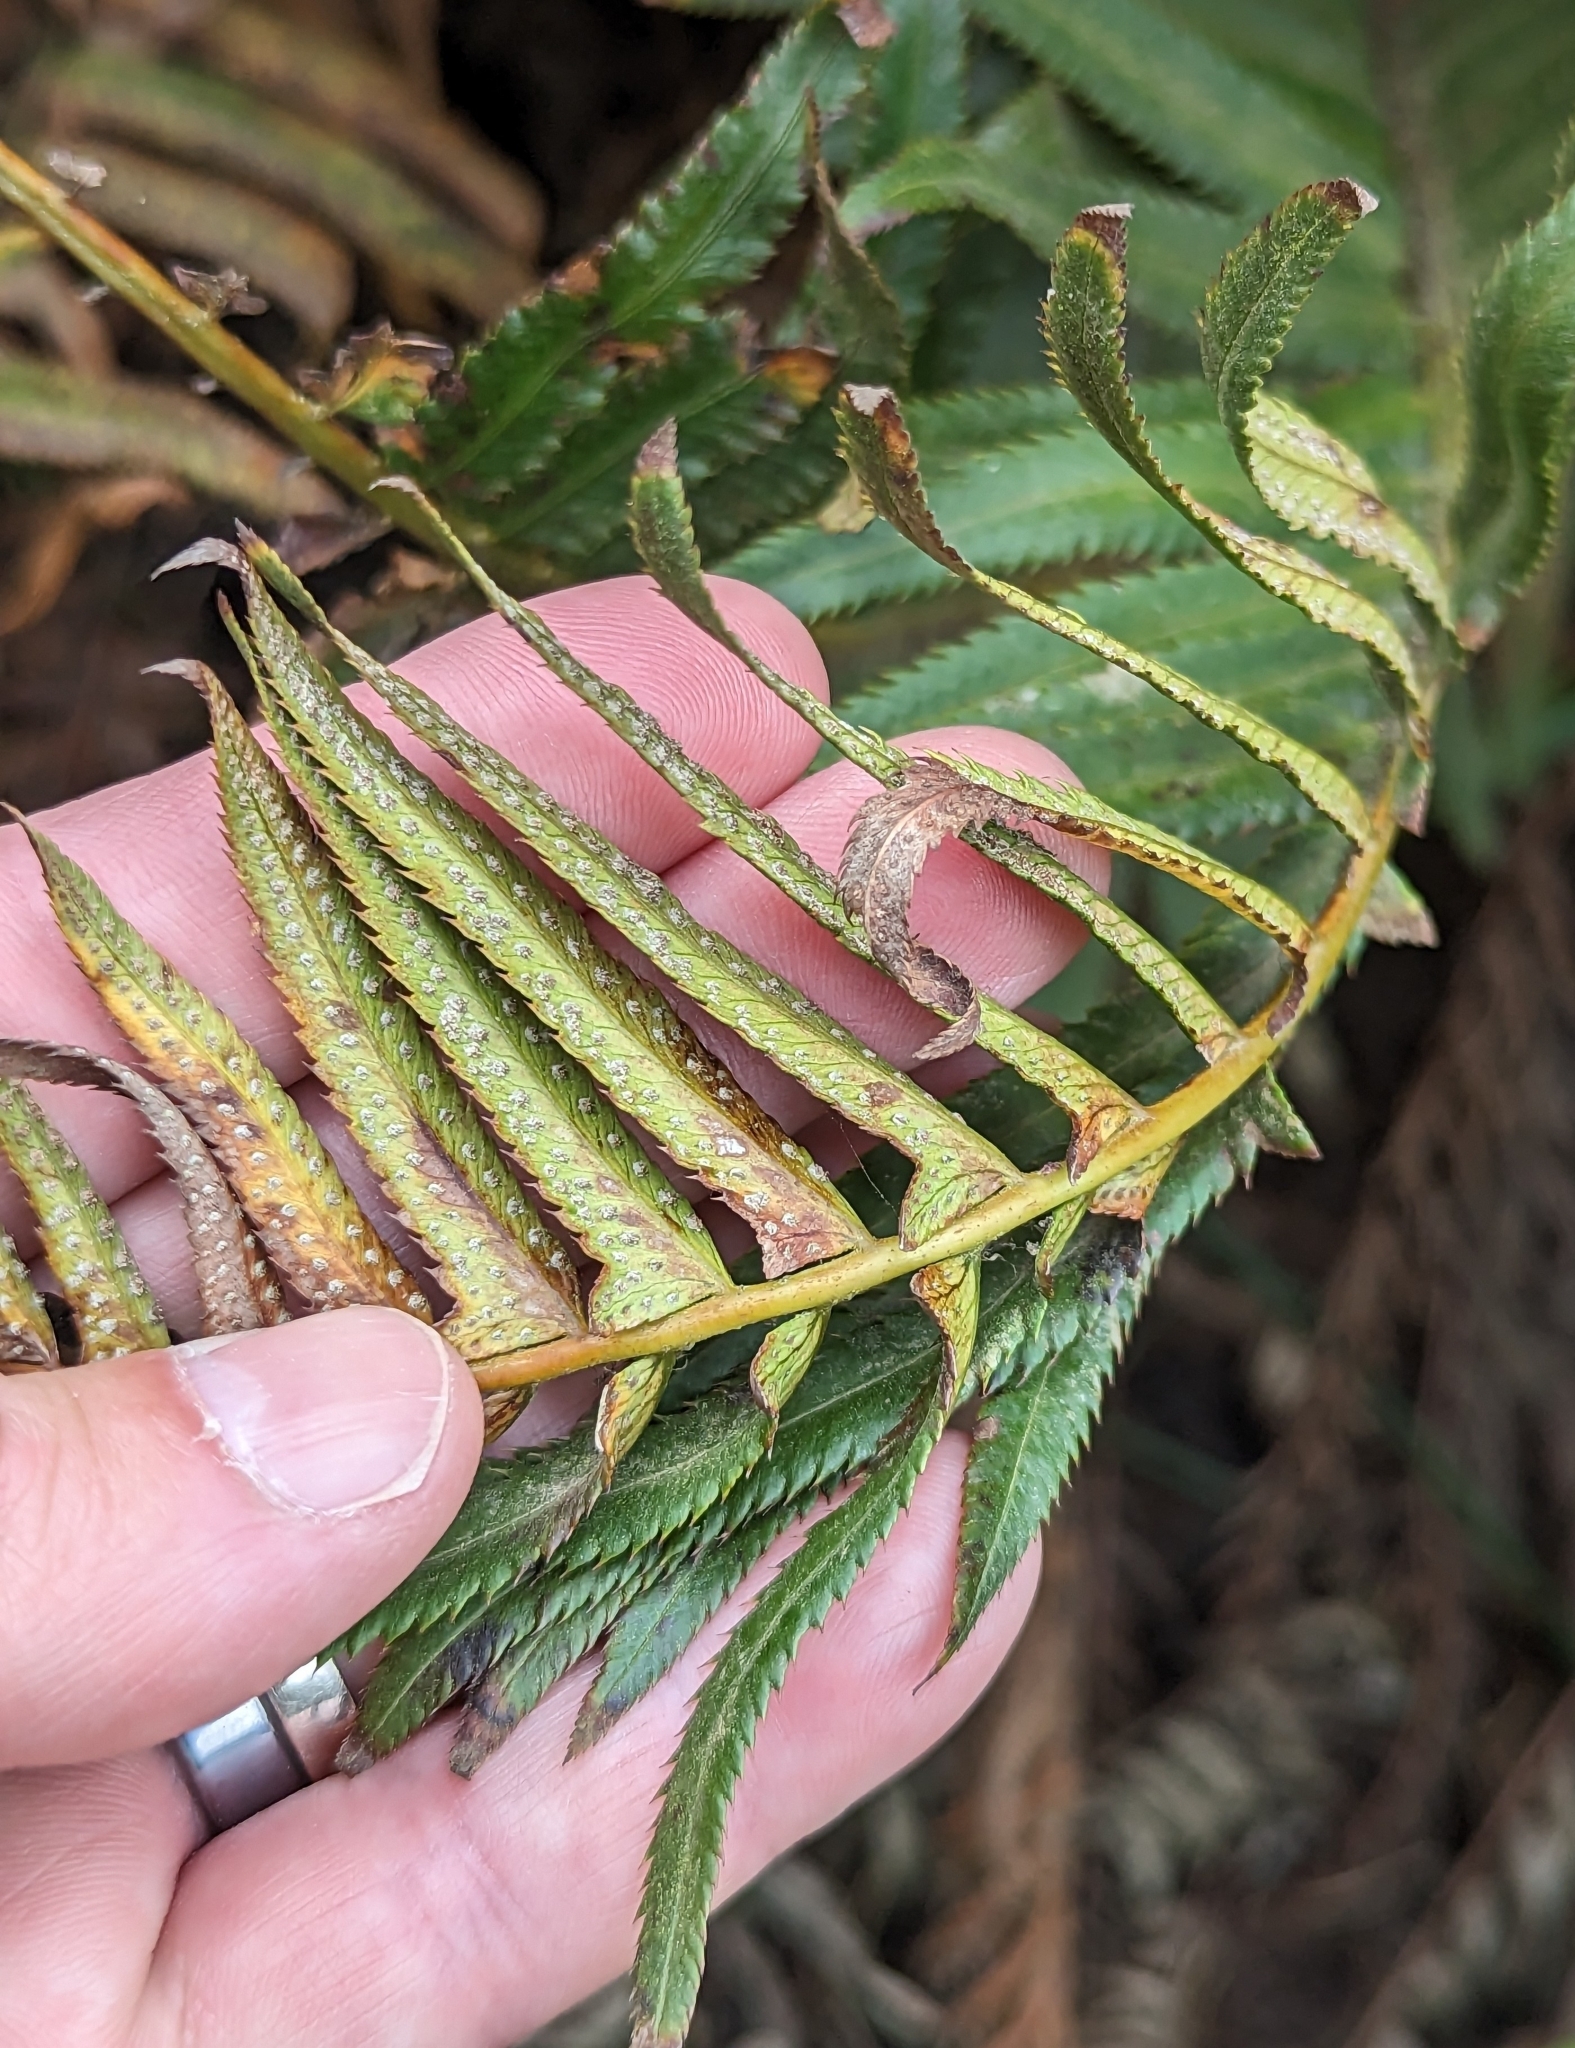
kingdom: Plantae
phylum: Tracheophyta
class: Polypodiopsida
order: Polypodiales
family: Dryopteridaceae
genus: Polystichum
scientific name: Polystichum munitum
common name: Western sword-fern
